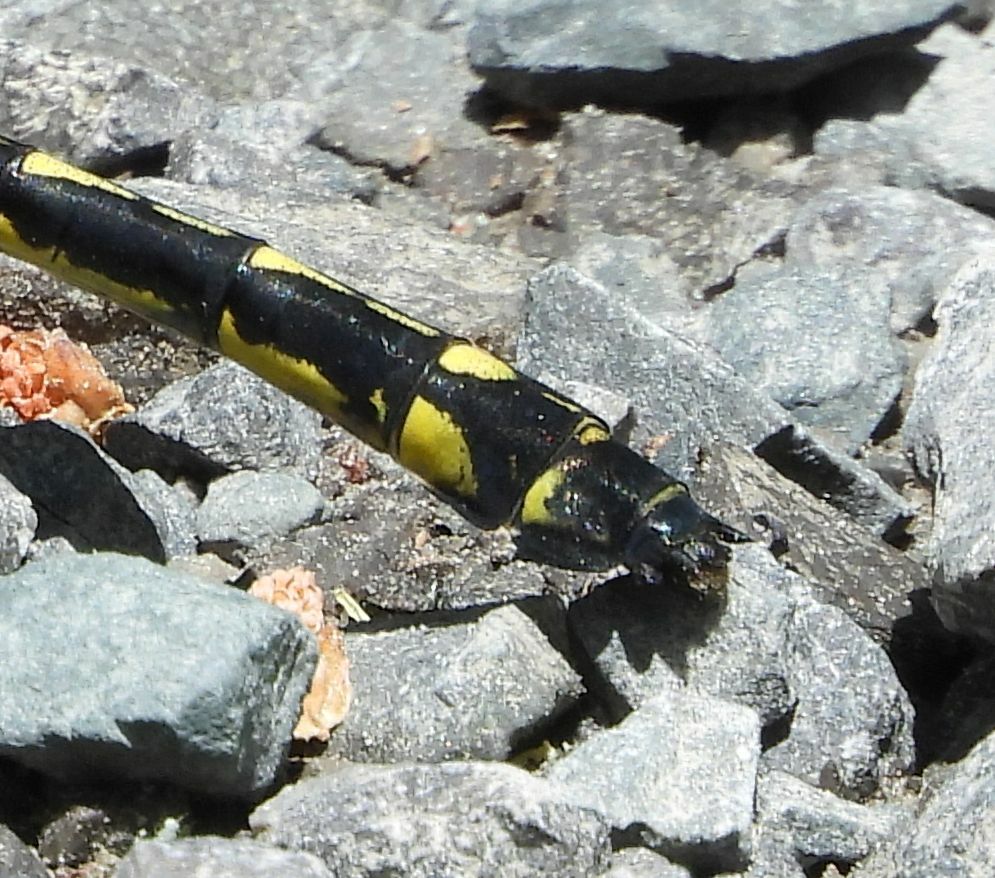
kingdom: Animalia
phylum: Arthropoda
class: Insecta
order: Odonata
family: Gomphidae
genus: Hagenius
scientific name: Hagenius brevistylus
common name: Dragonhunter
